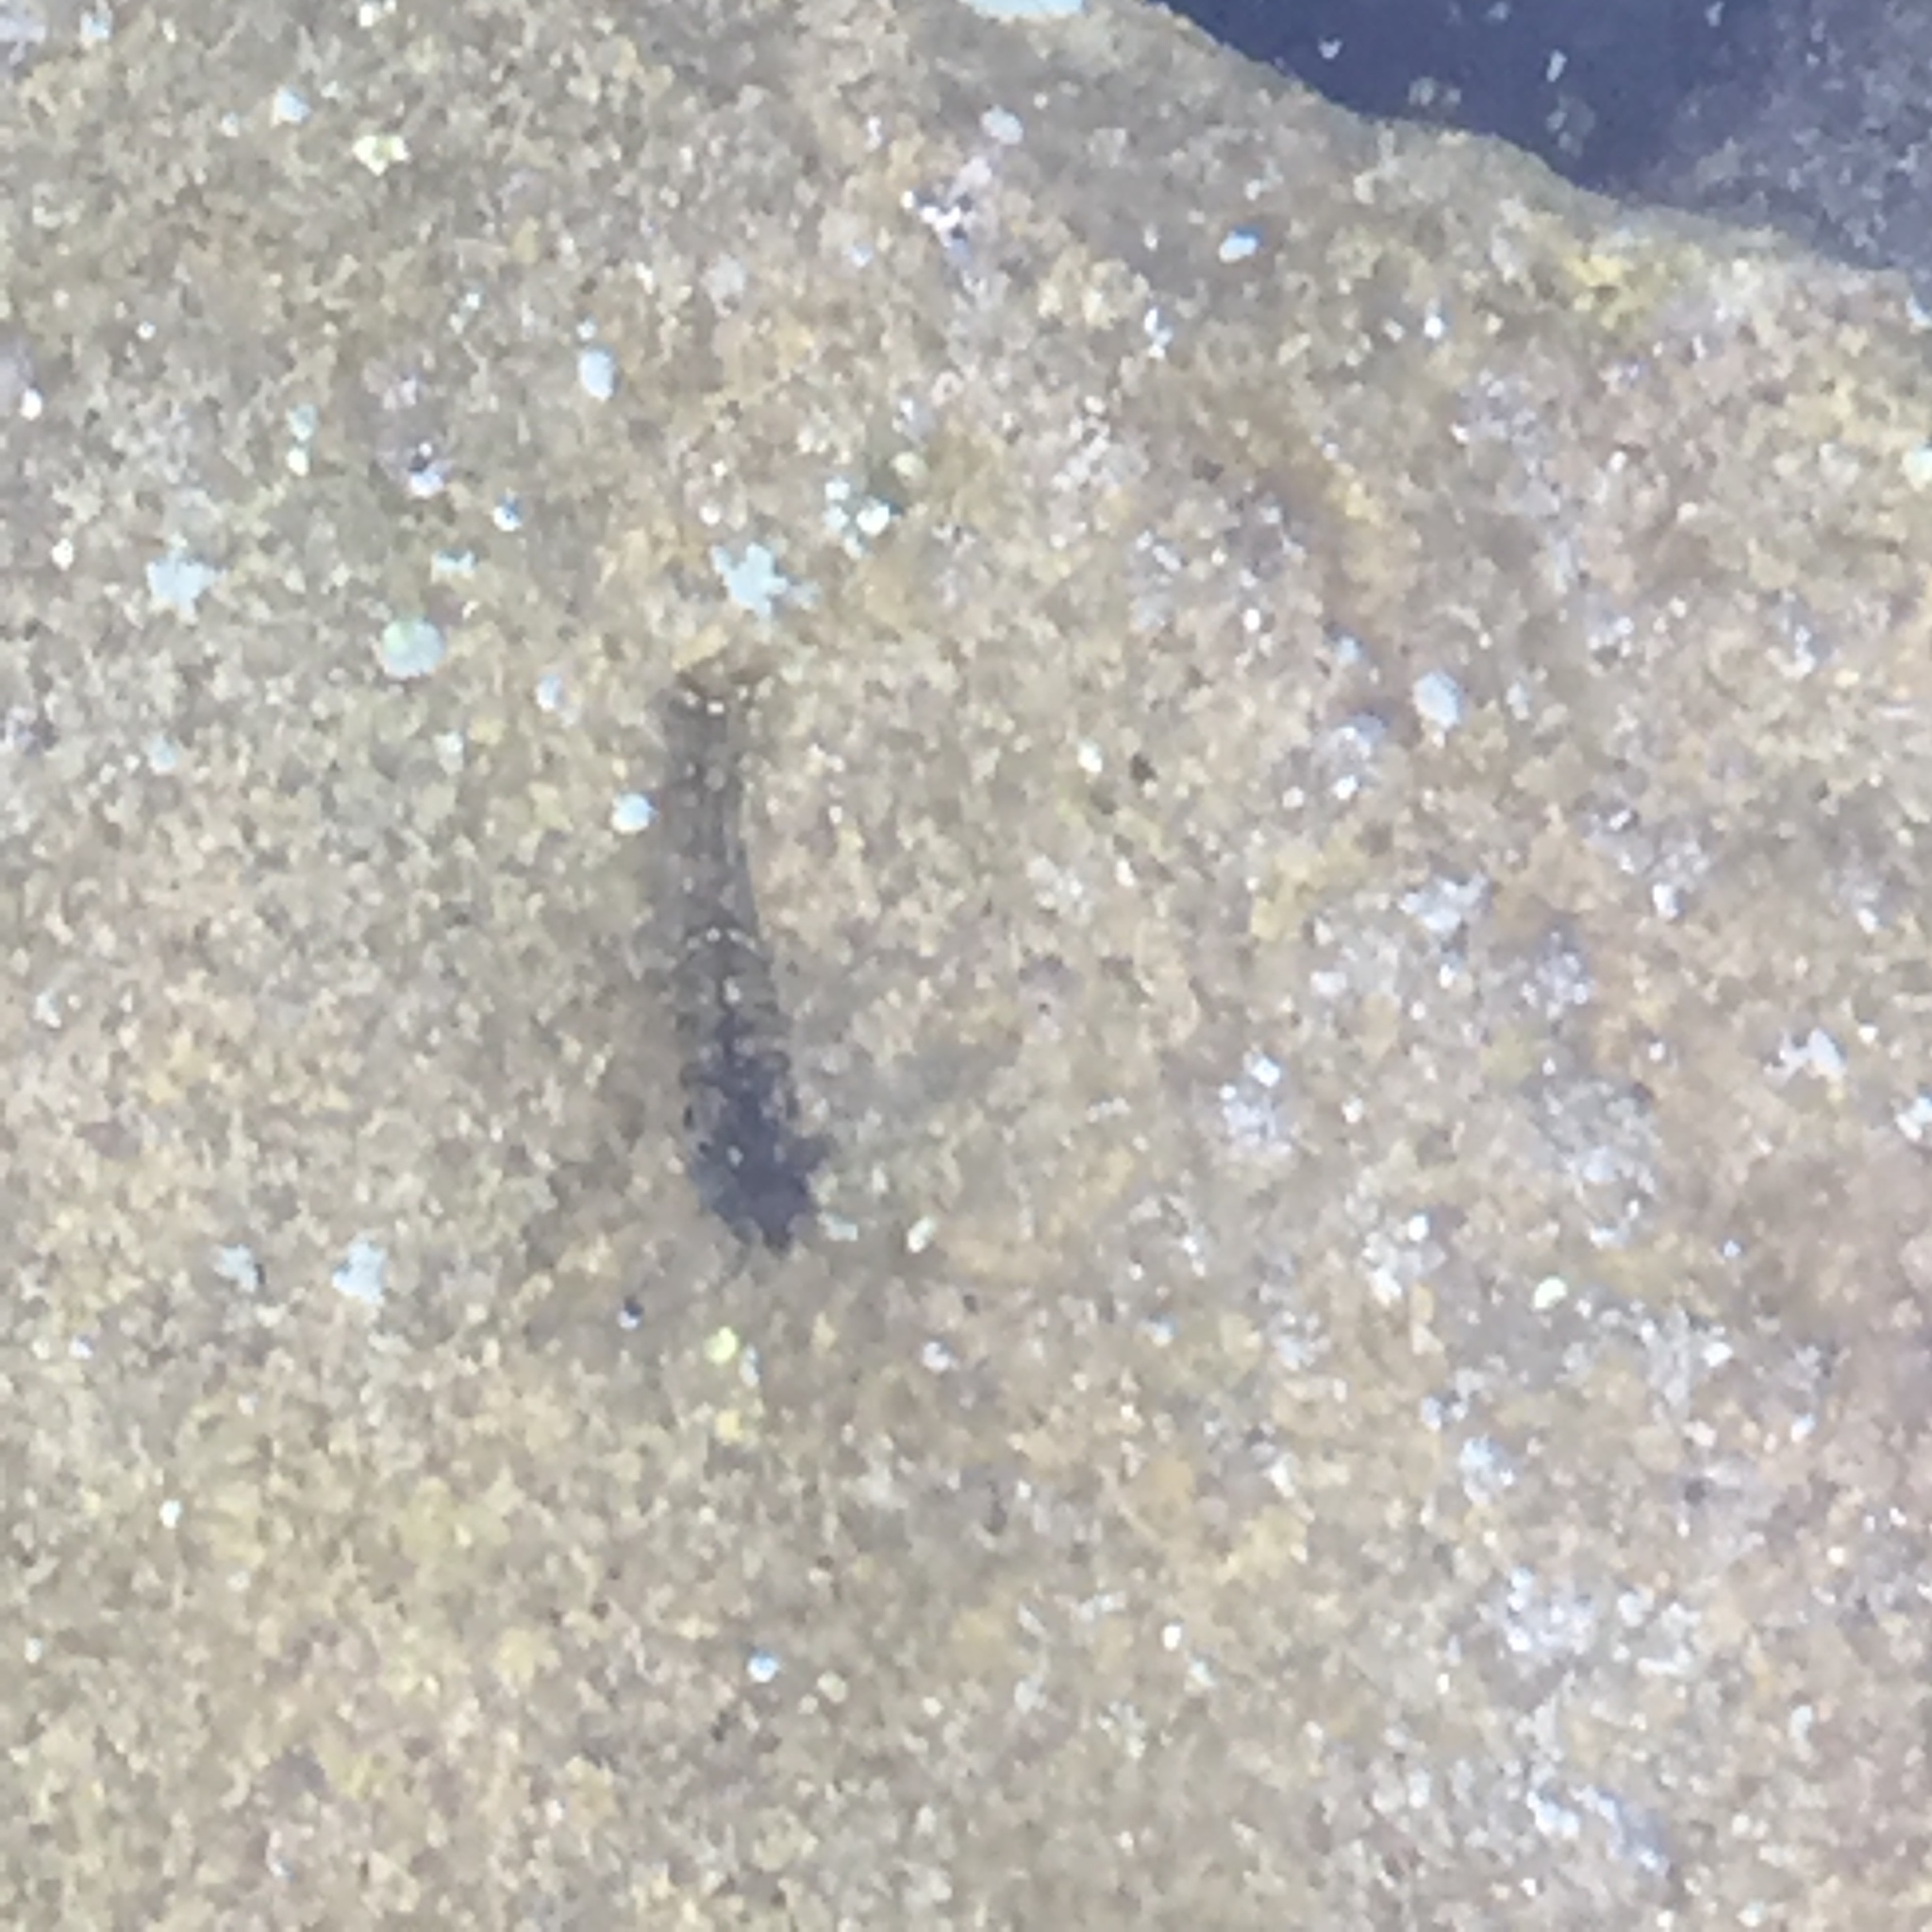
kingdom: Animalia
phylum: Arthropoda
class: Malacostraca
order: Decapoda
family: Palaemonidae
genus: Palaemon
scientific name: Palaemon elegans
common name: Grass prawm
